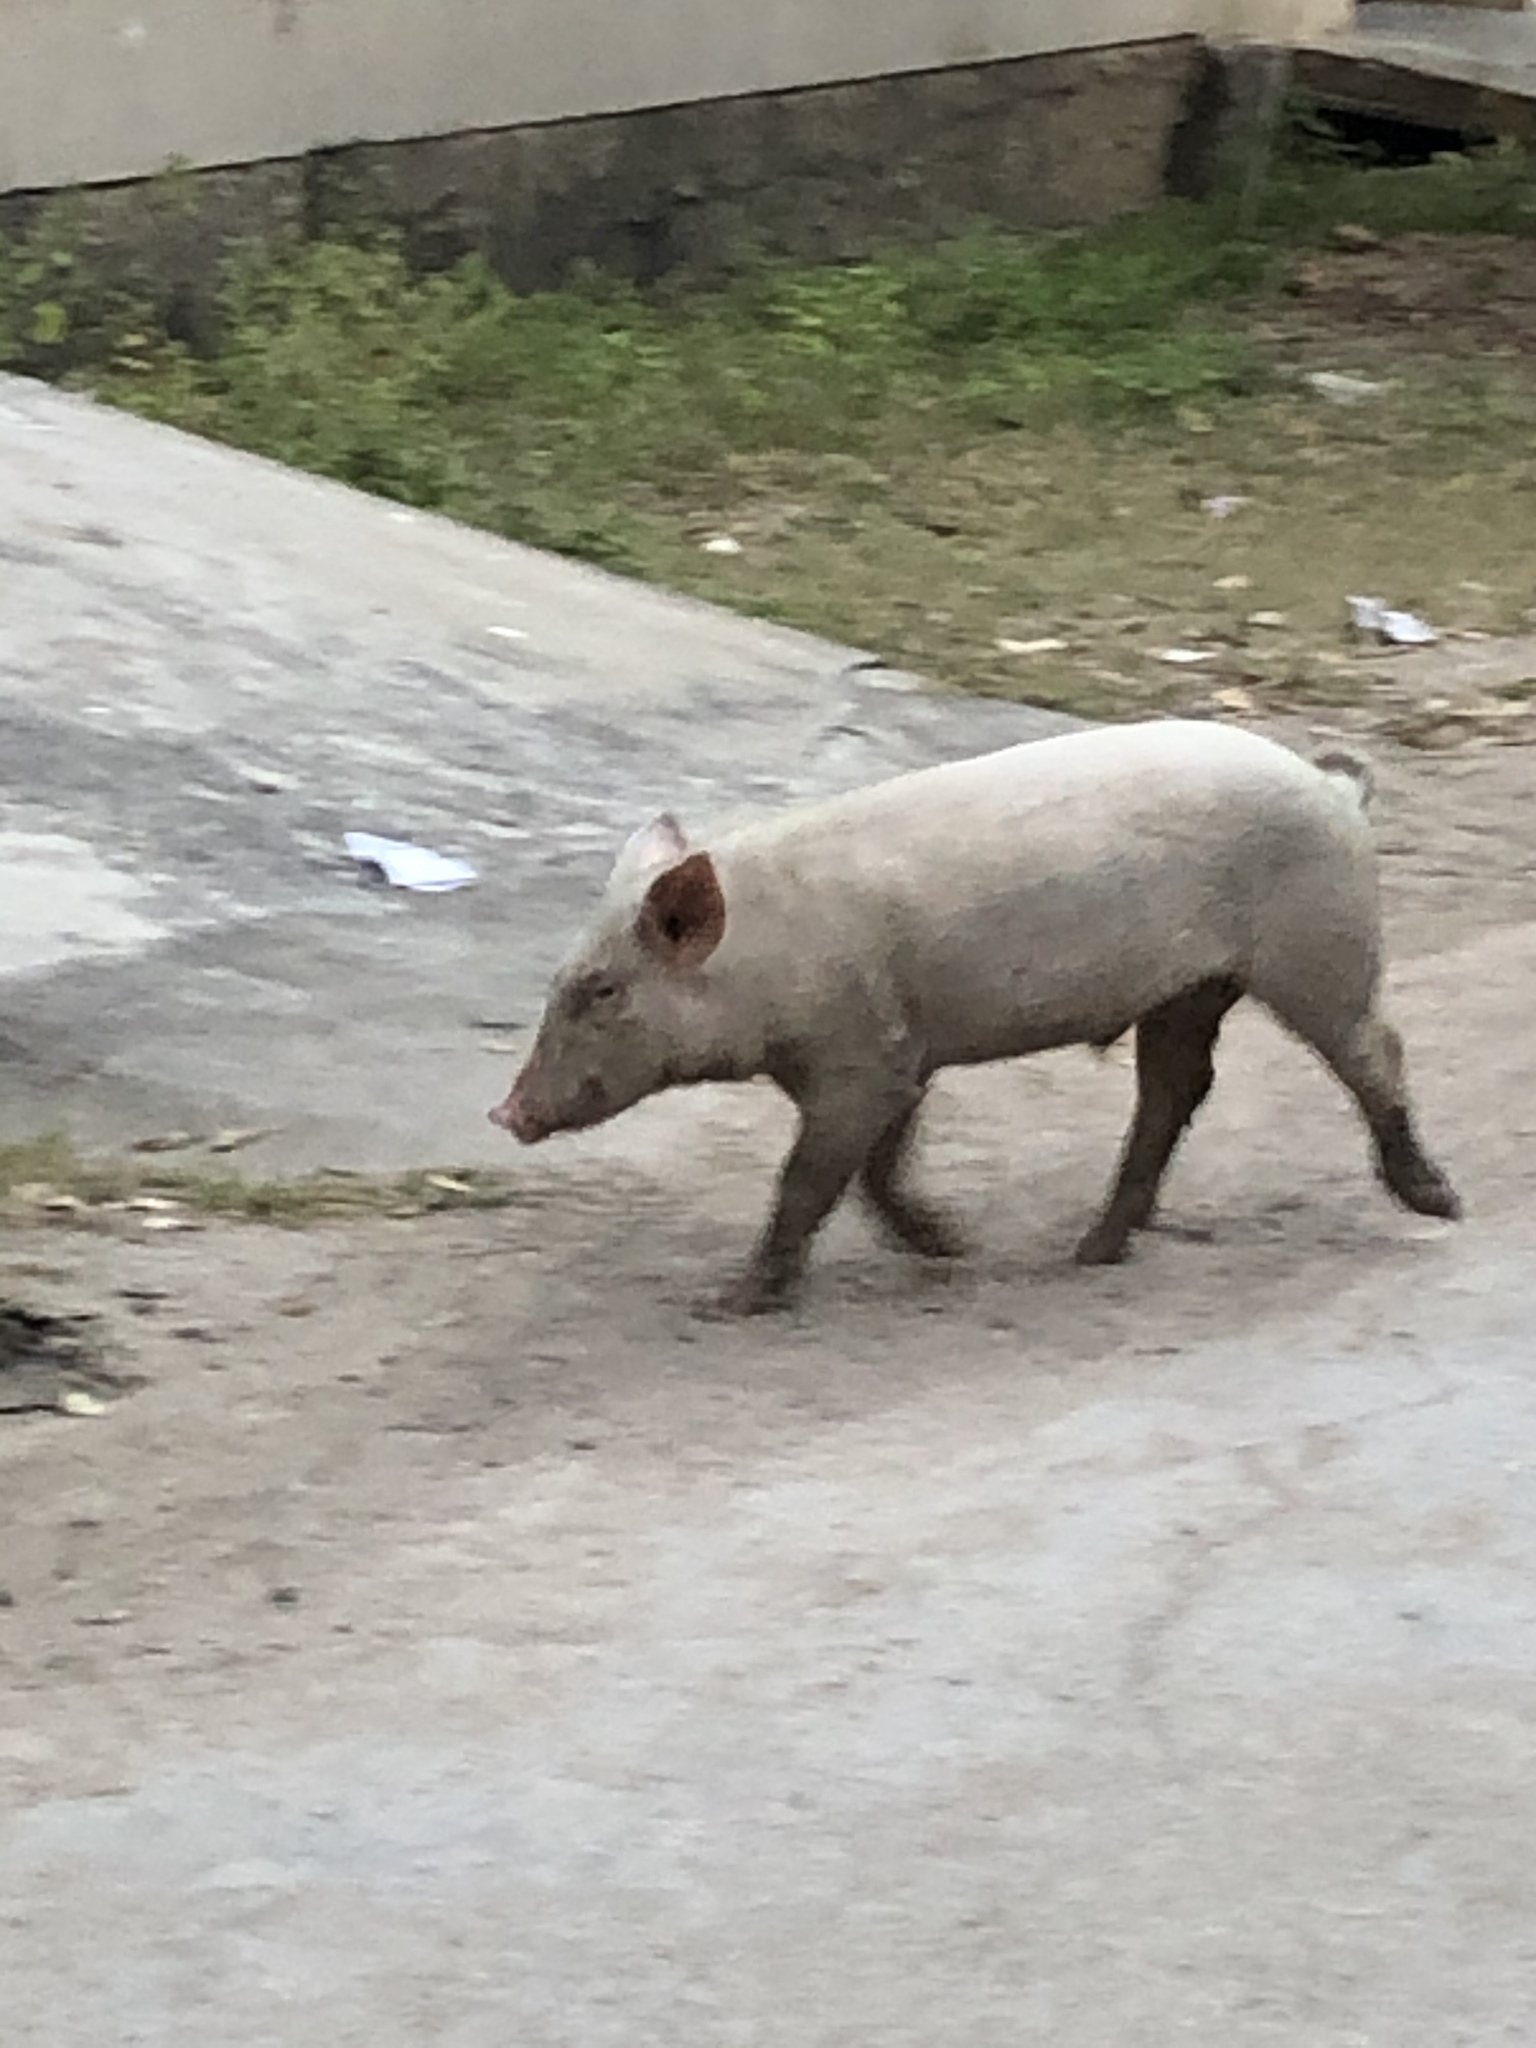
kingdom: Animalia
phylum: Chordata
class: Mammalia
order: Artiodactyla
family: Suidae
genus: Sus
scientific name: Sus scrofa
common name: Wild boar
